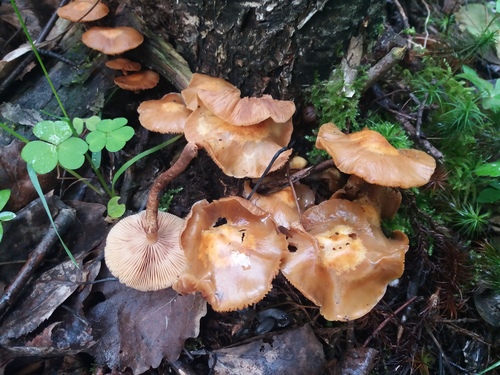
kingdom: Fungi
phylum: Basidiomycota
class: Agaricomycetes
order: Agaricales
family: Strophariaceae
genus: Kuehneromyces
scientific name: Kuehneromyces mutabilis
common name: Sheathed woodtuft
